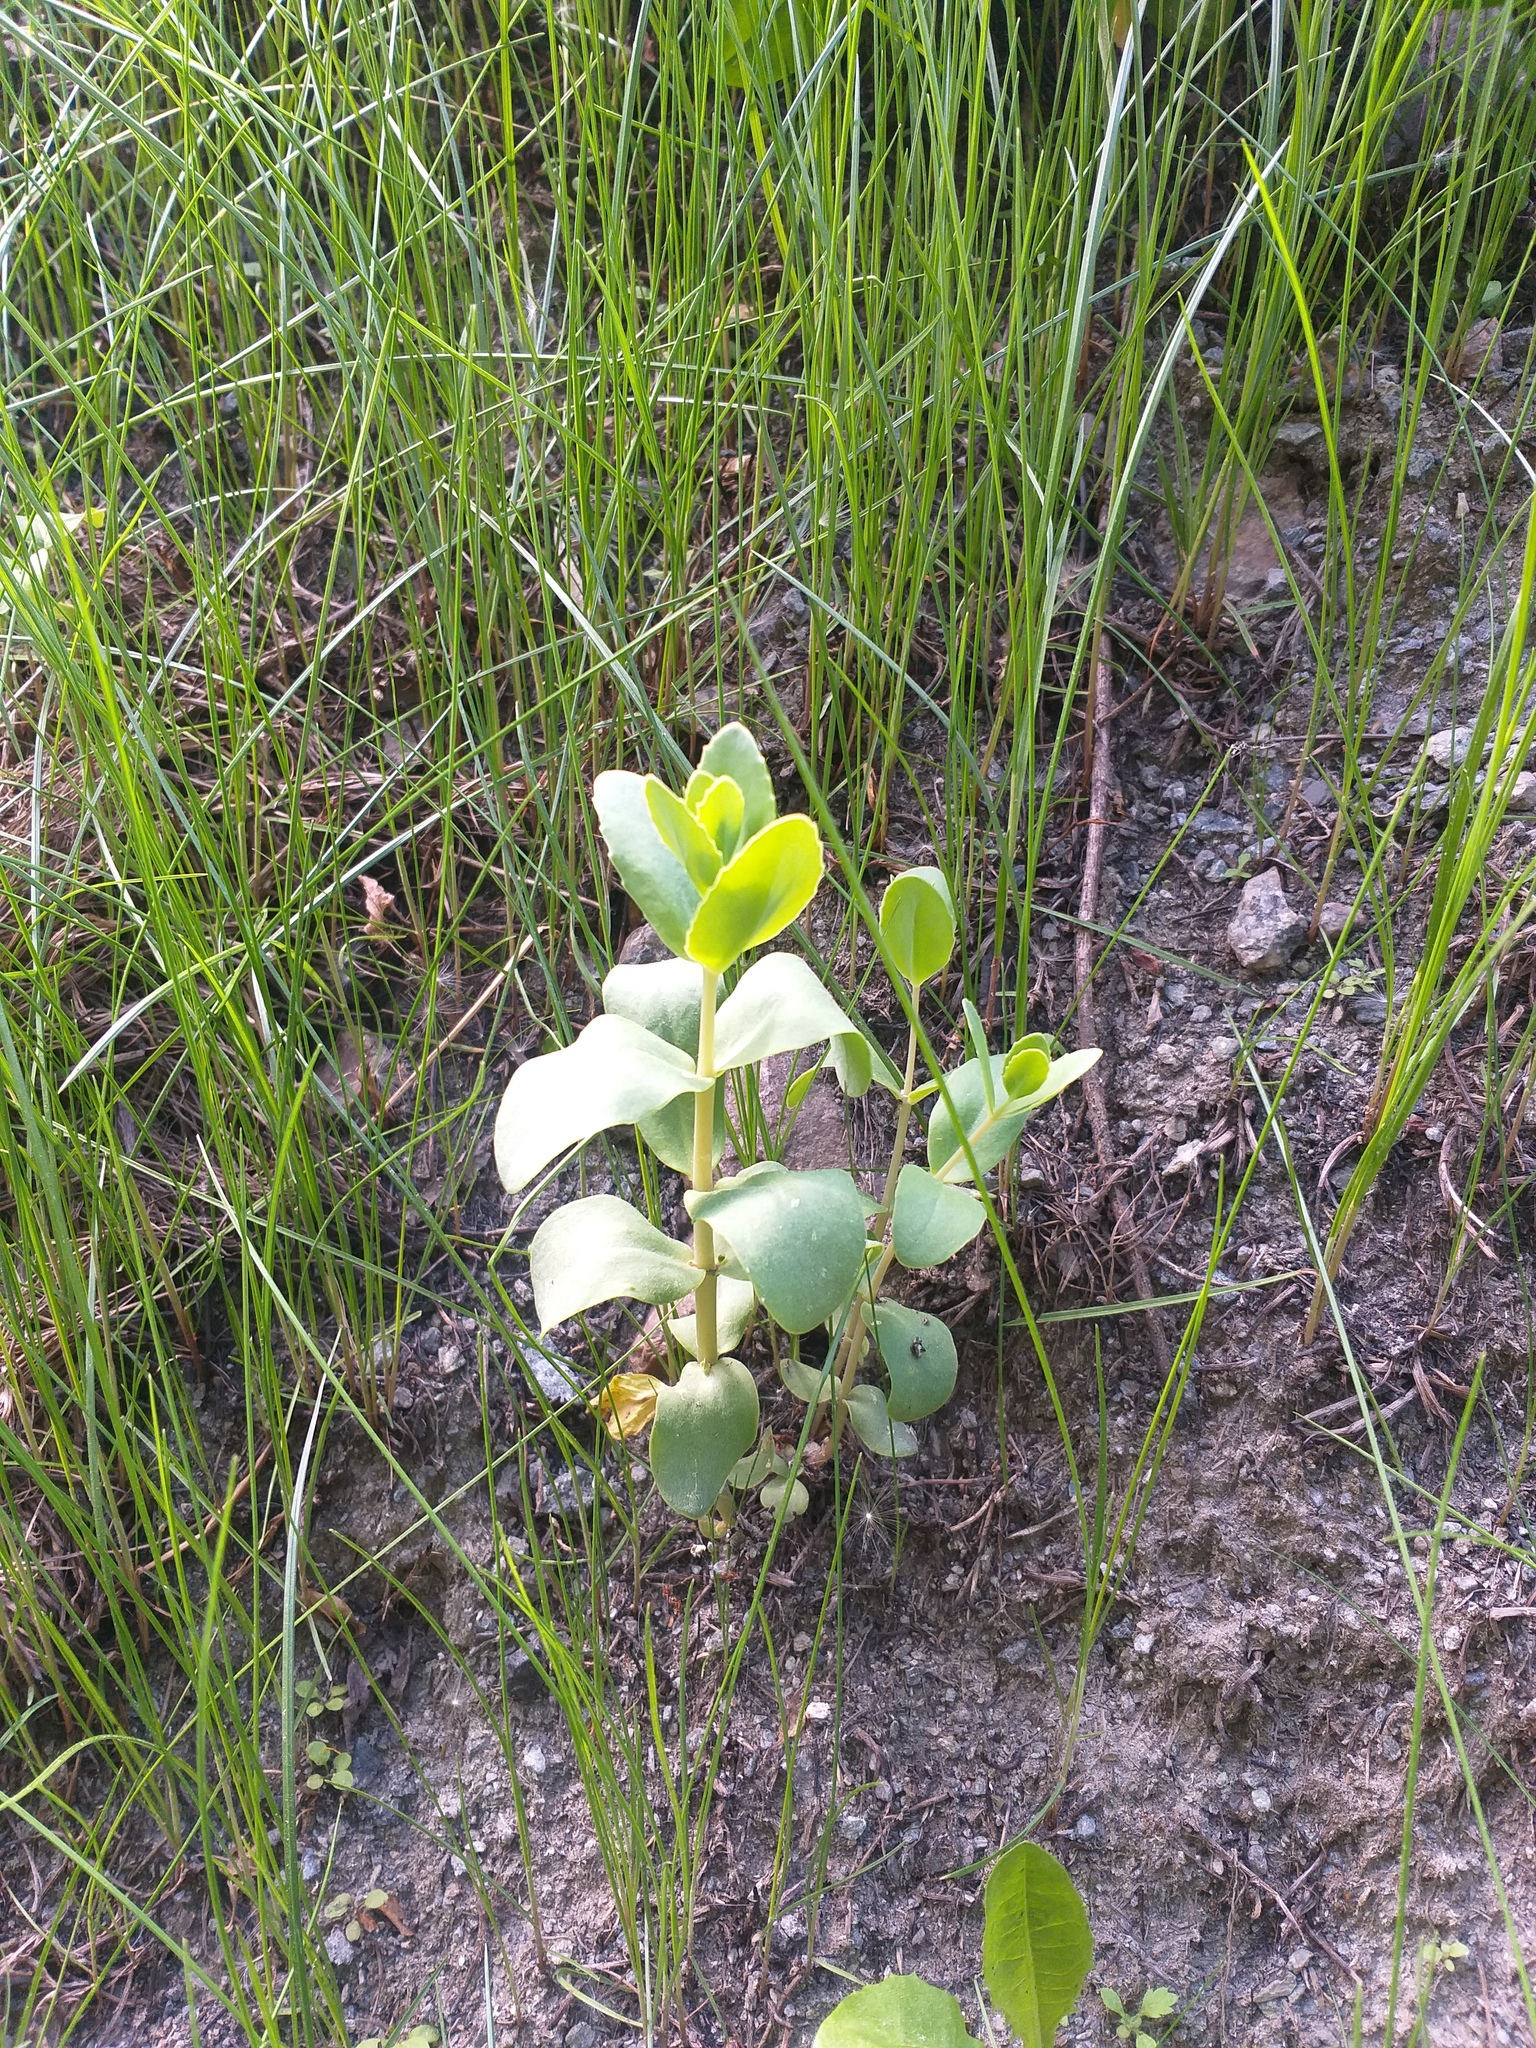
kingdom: Plantae
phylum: Tracheophyta
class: Magnoliopsida
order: Saxifragales
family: Crassulaceae
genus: Hylotelephium
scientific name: Hylotelephium maximum
